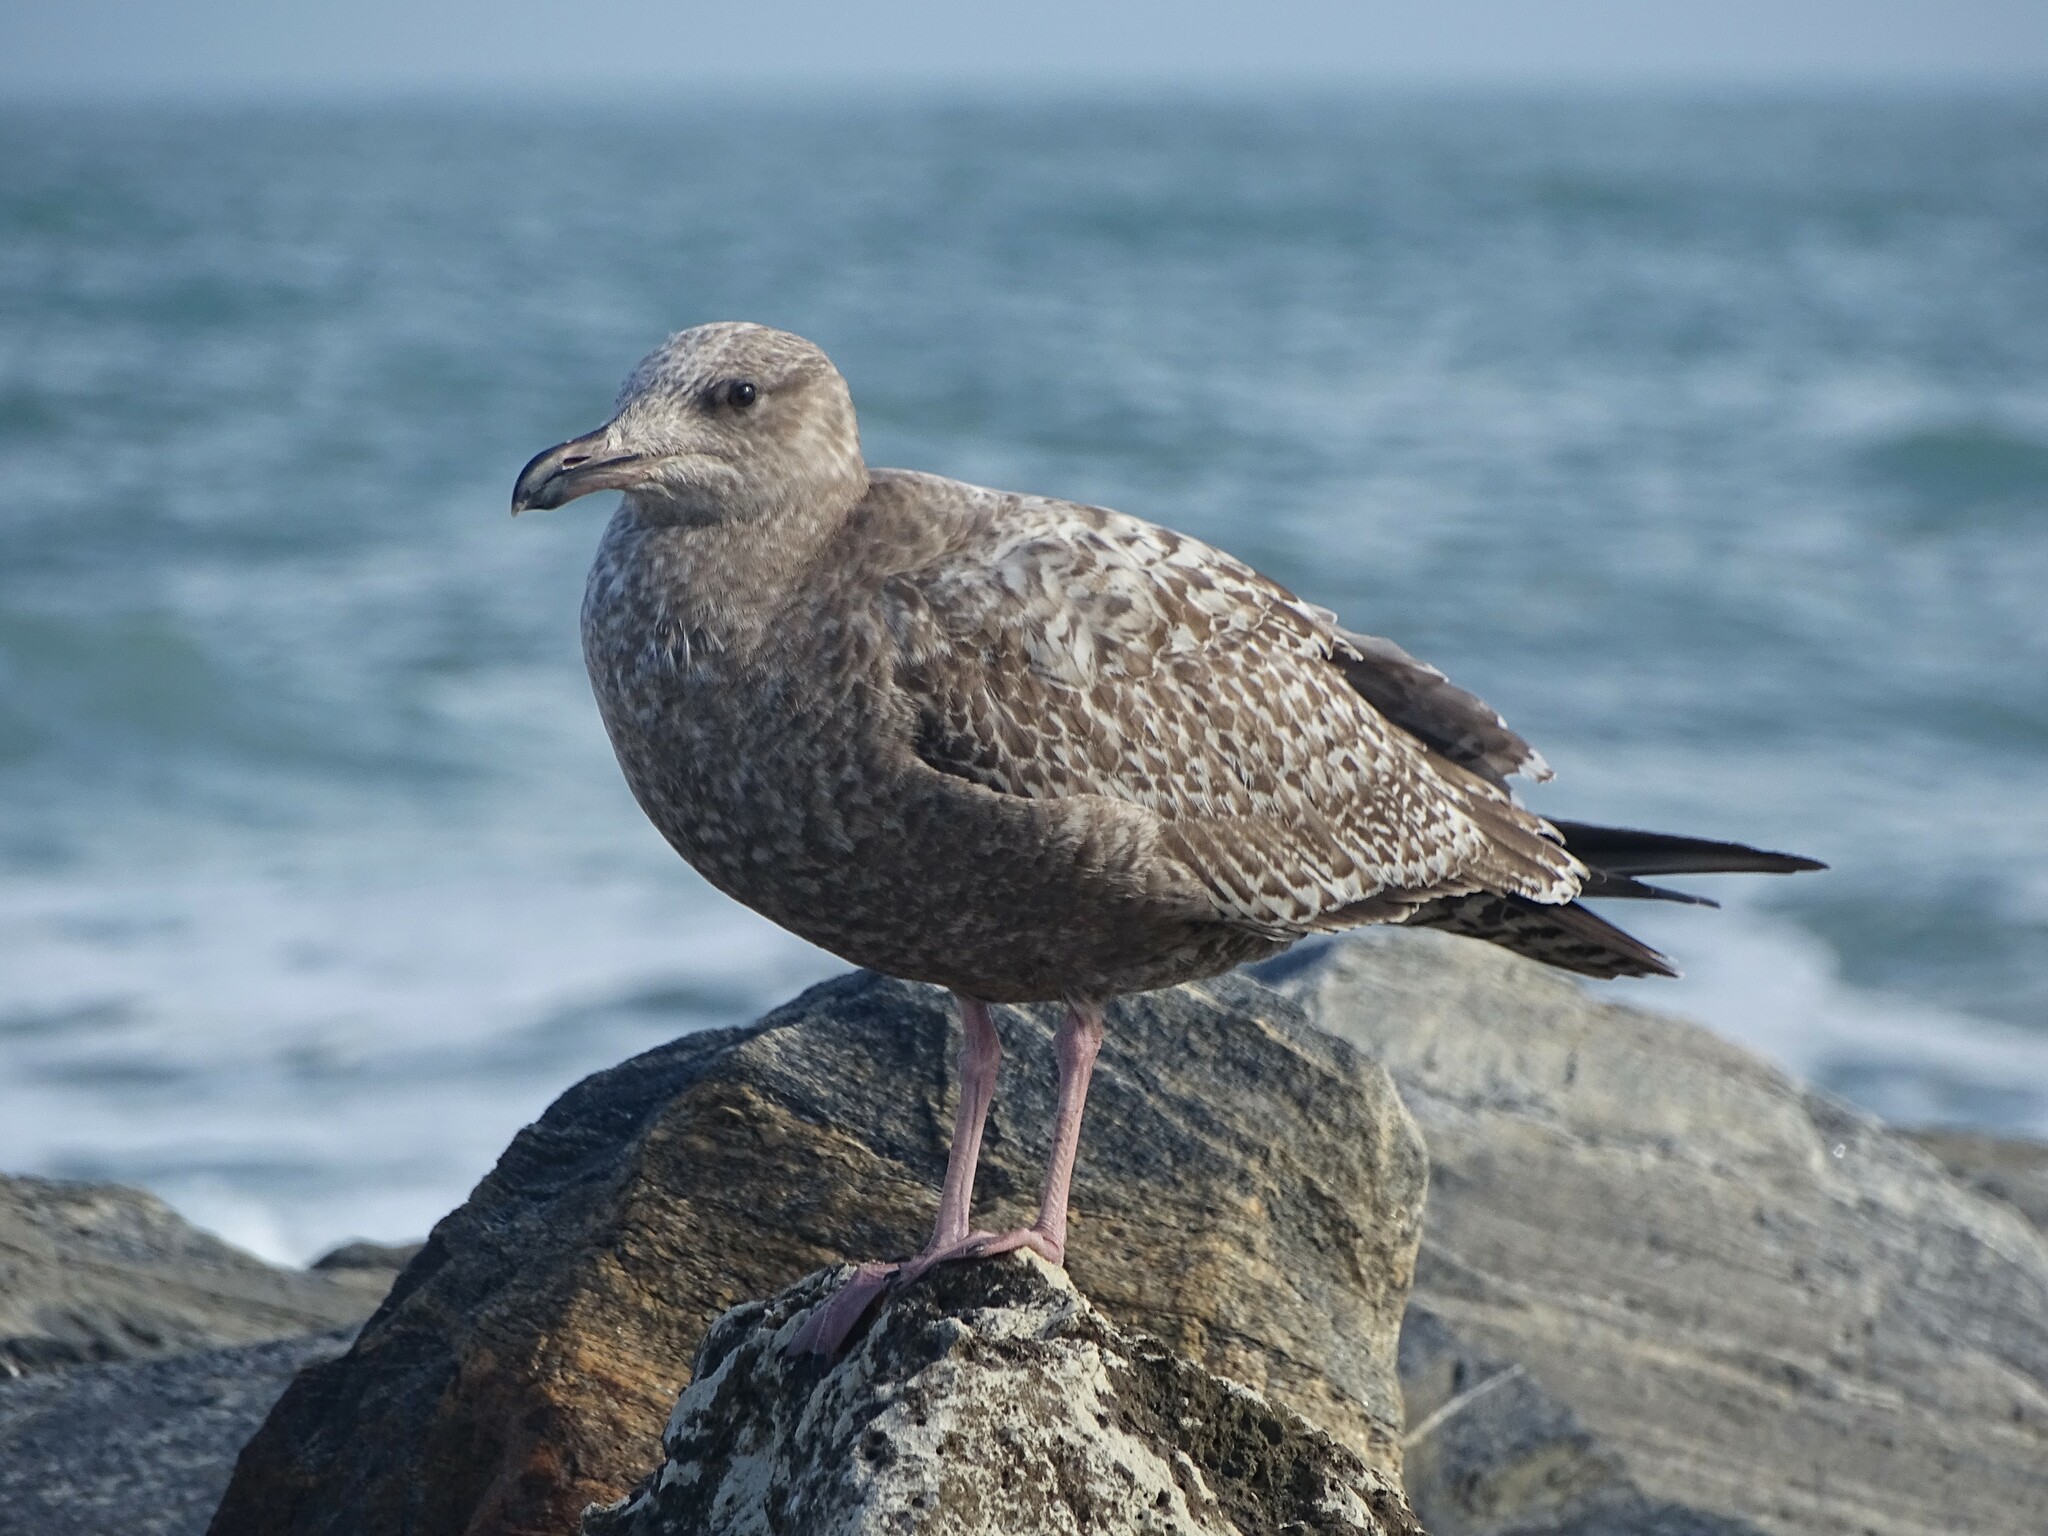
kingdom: Animalia
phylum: Chordata
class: Aves
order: Charadriiformes
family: Laridae
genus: Larus
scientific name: Larus argentatus
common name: Herring gull
